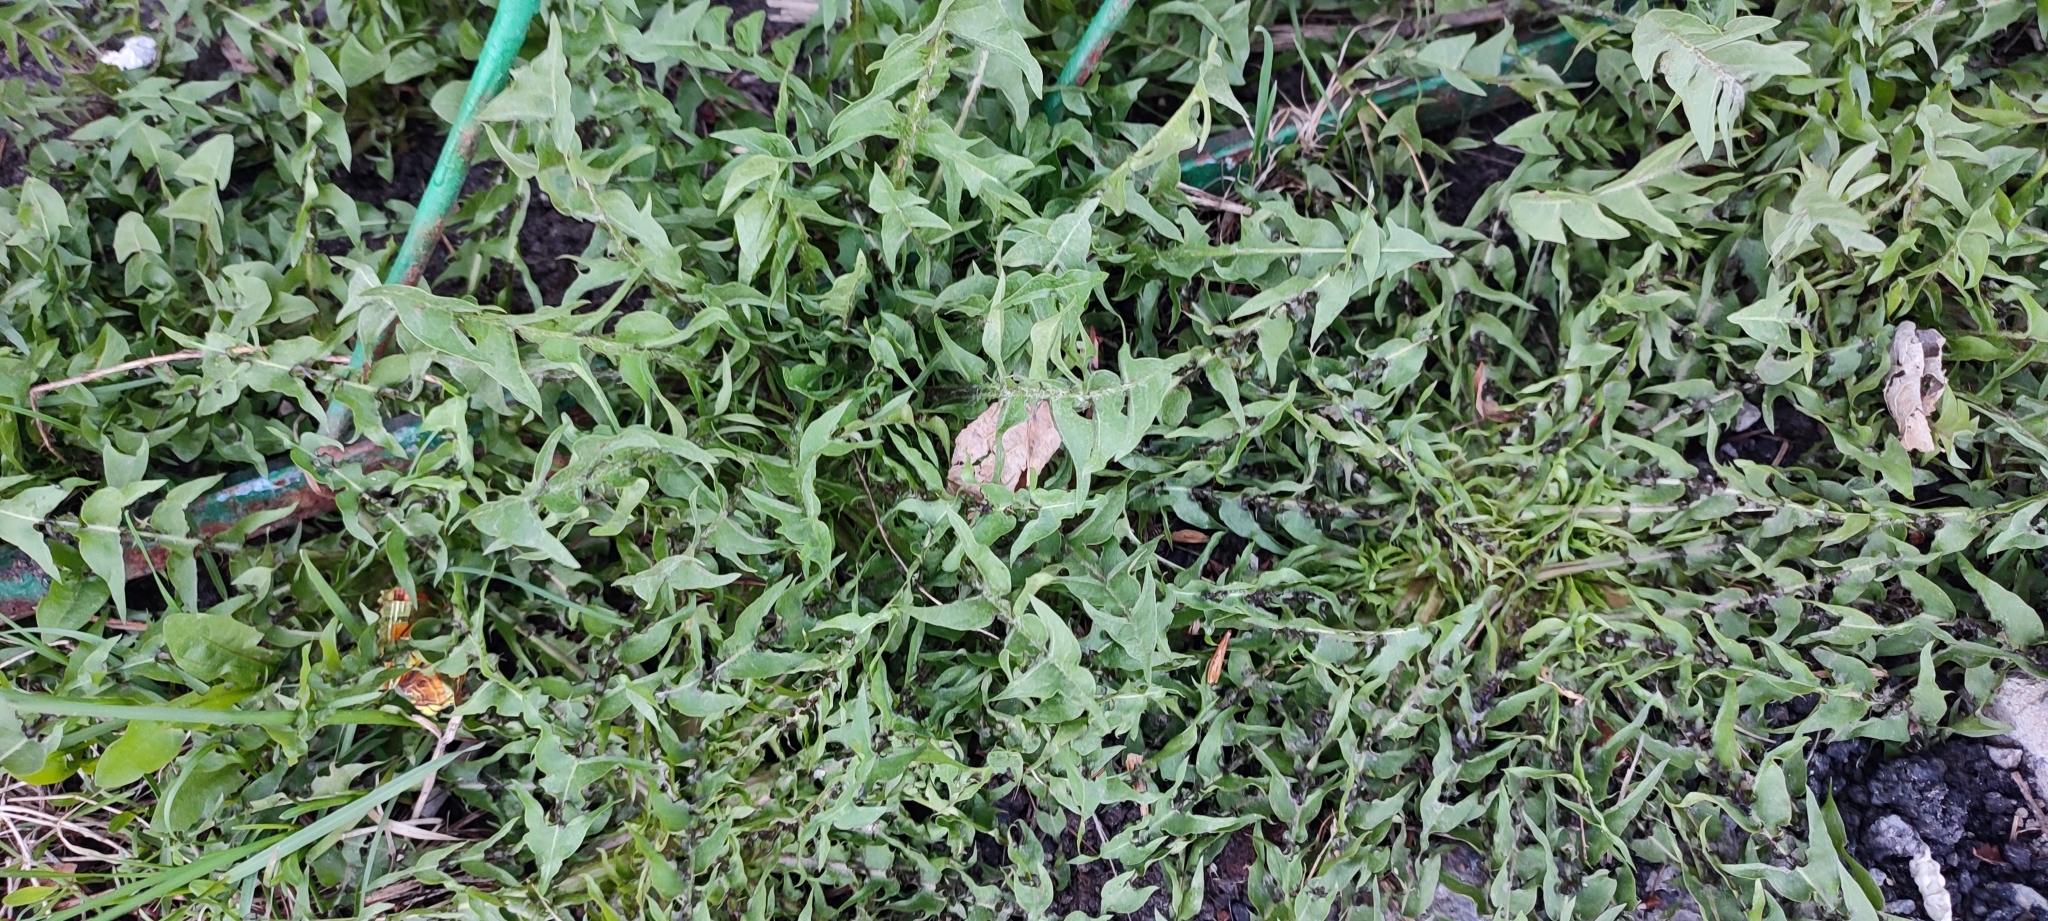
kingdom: Plantae
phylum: Tracheophyta
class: Magnoliopsida
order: Asterales
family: Asteraceae
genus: Taraxacum
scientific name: Taraxacum officinale
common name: Common dandelion
